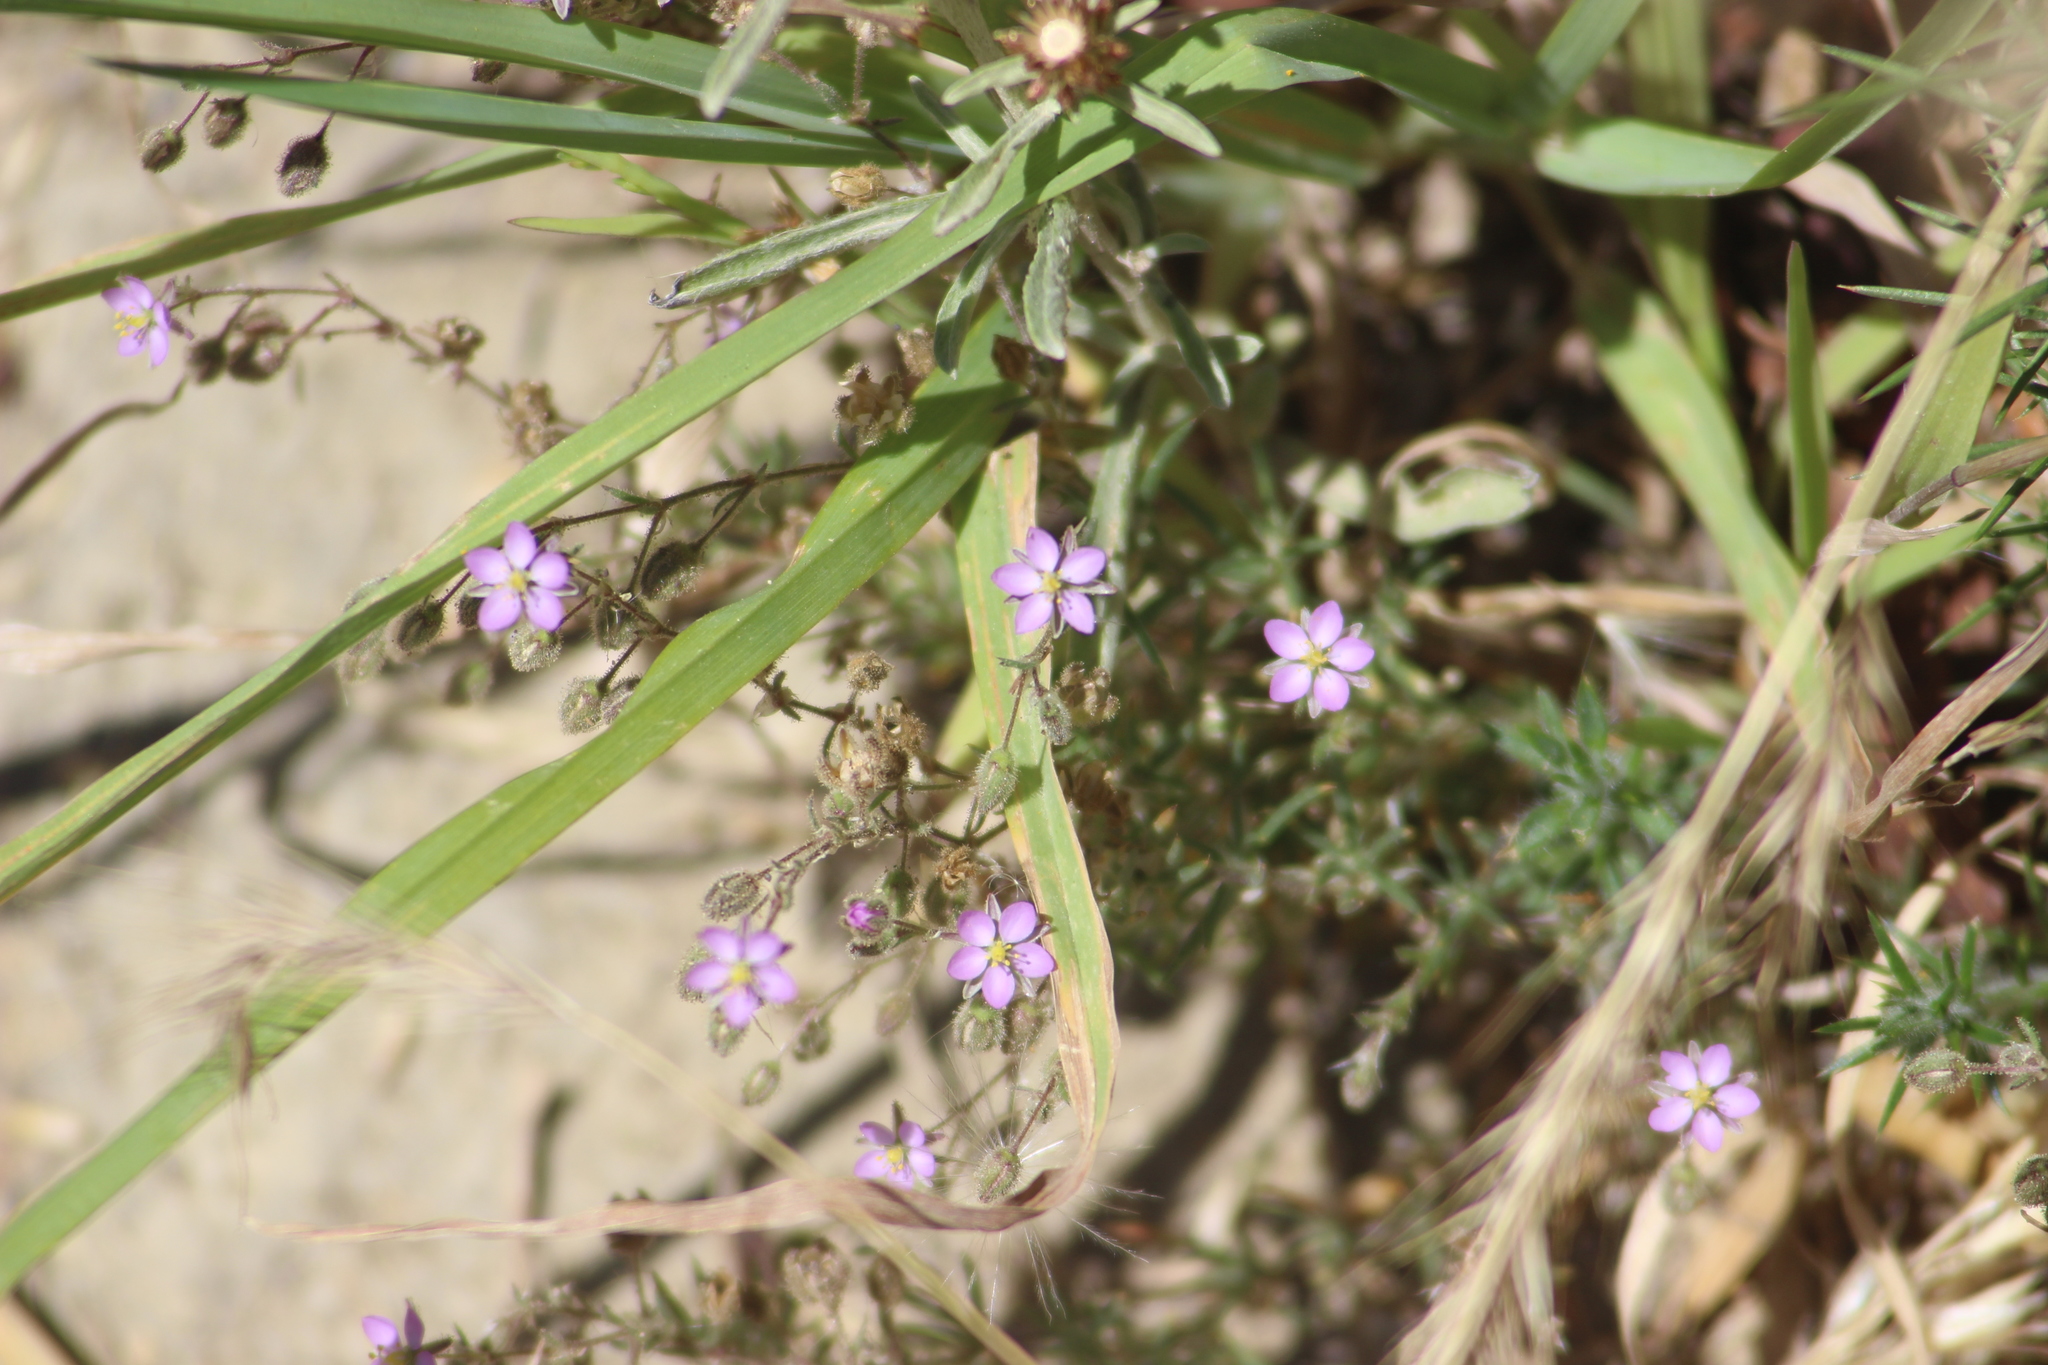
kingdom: Plantae
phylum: Tracheophyta
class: Magnoliopsida
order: Caryophyllales
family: Caryophyllaceae
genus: Spergularia
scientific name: Spergularia rubra
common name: Red sand-spurrey
